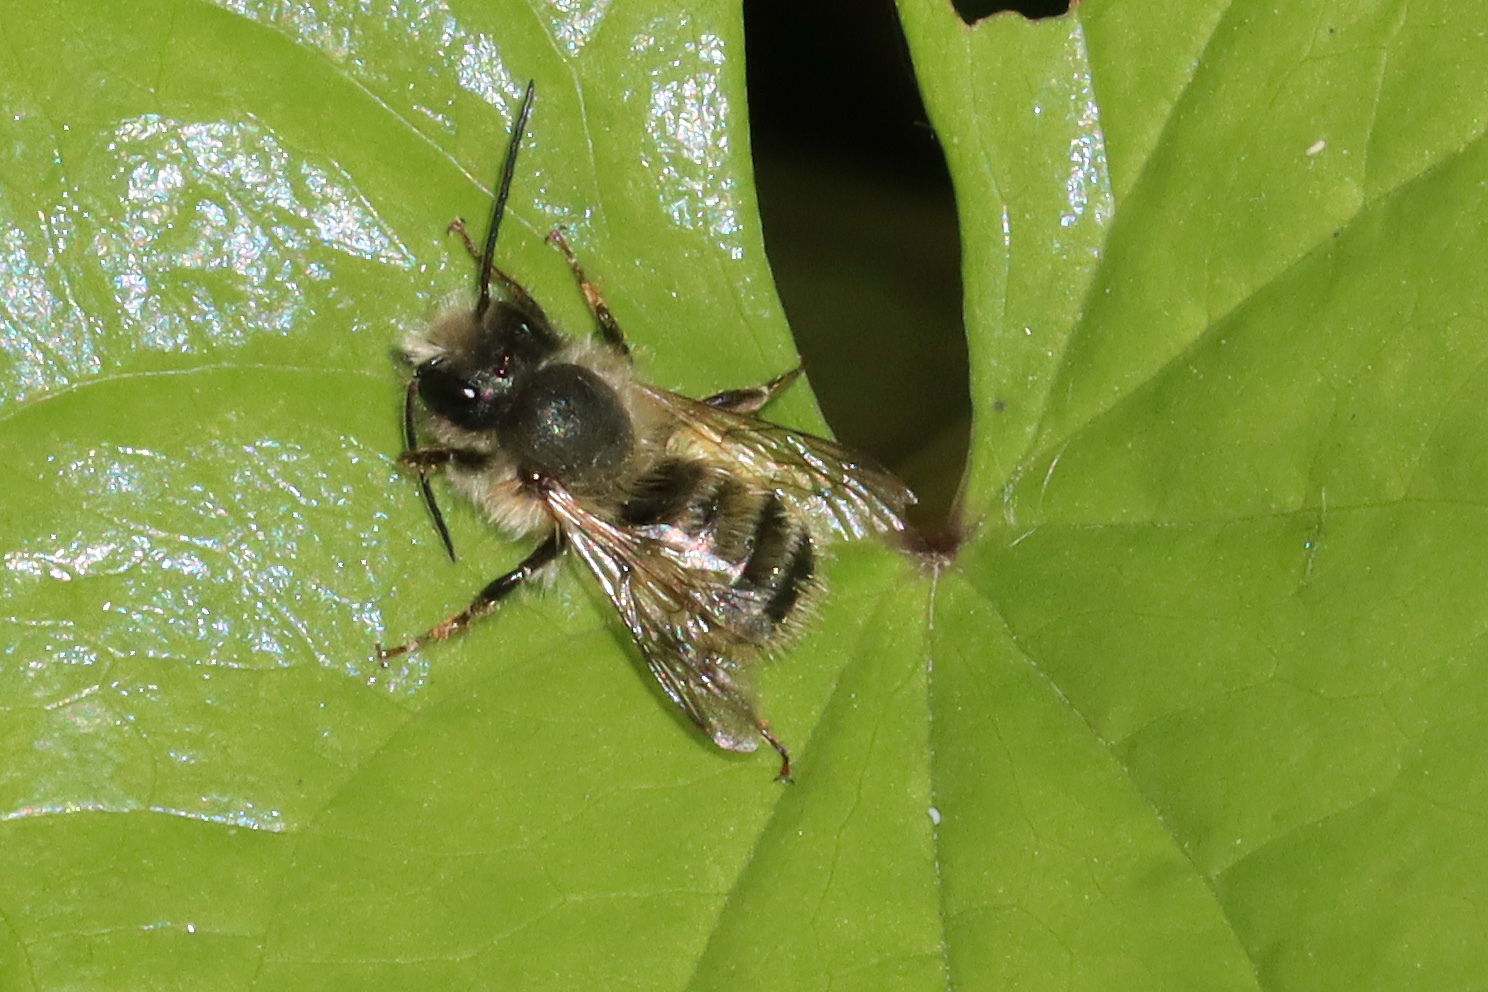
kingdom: Animalia
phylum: Arthropoda
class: Insecta
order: Hymenoptera
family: Megachilidae
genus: Osmia
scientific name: Osmia bicornis
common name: Red mason bee
